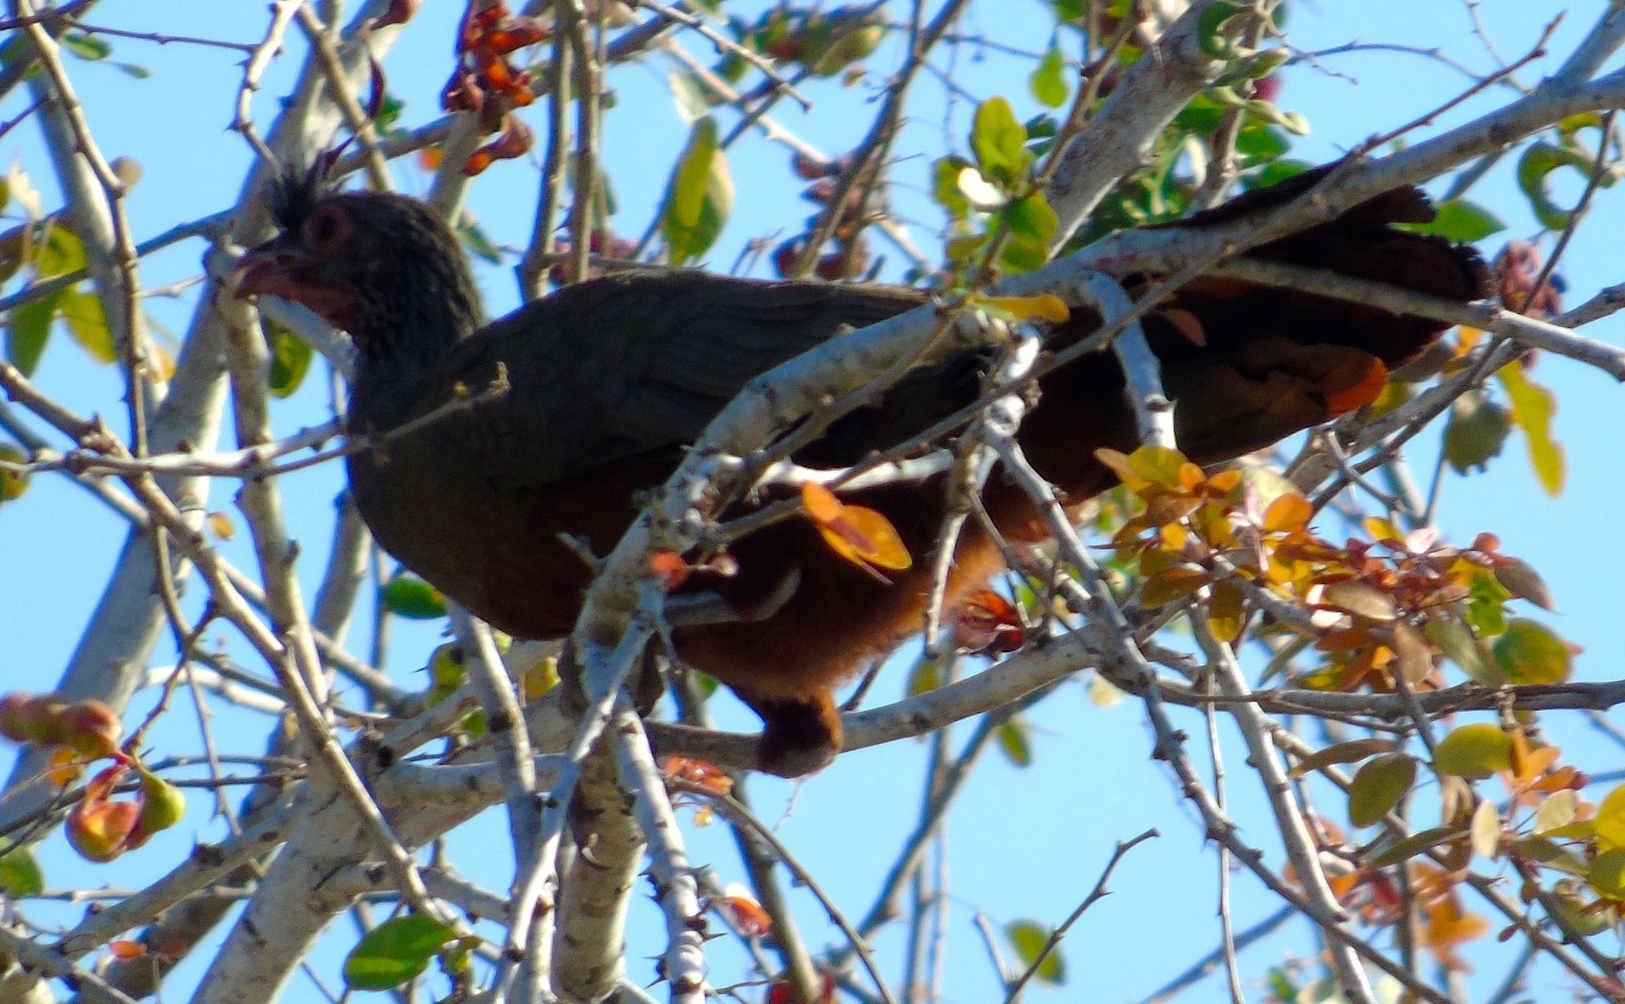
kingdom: Animalia
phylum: Chordata
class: Aves
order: Galliformes
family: Cracidae
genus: Ortalis
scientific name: Ortalis wagleri
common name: Rufous-bellied chachalaca
